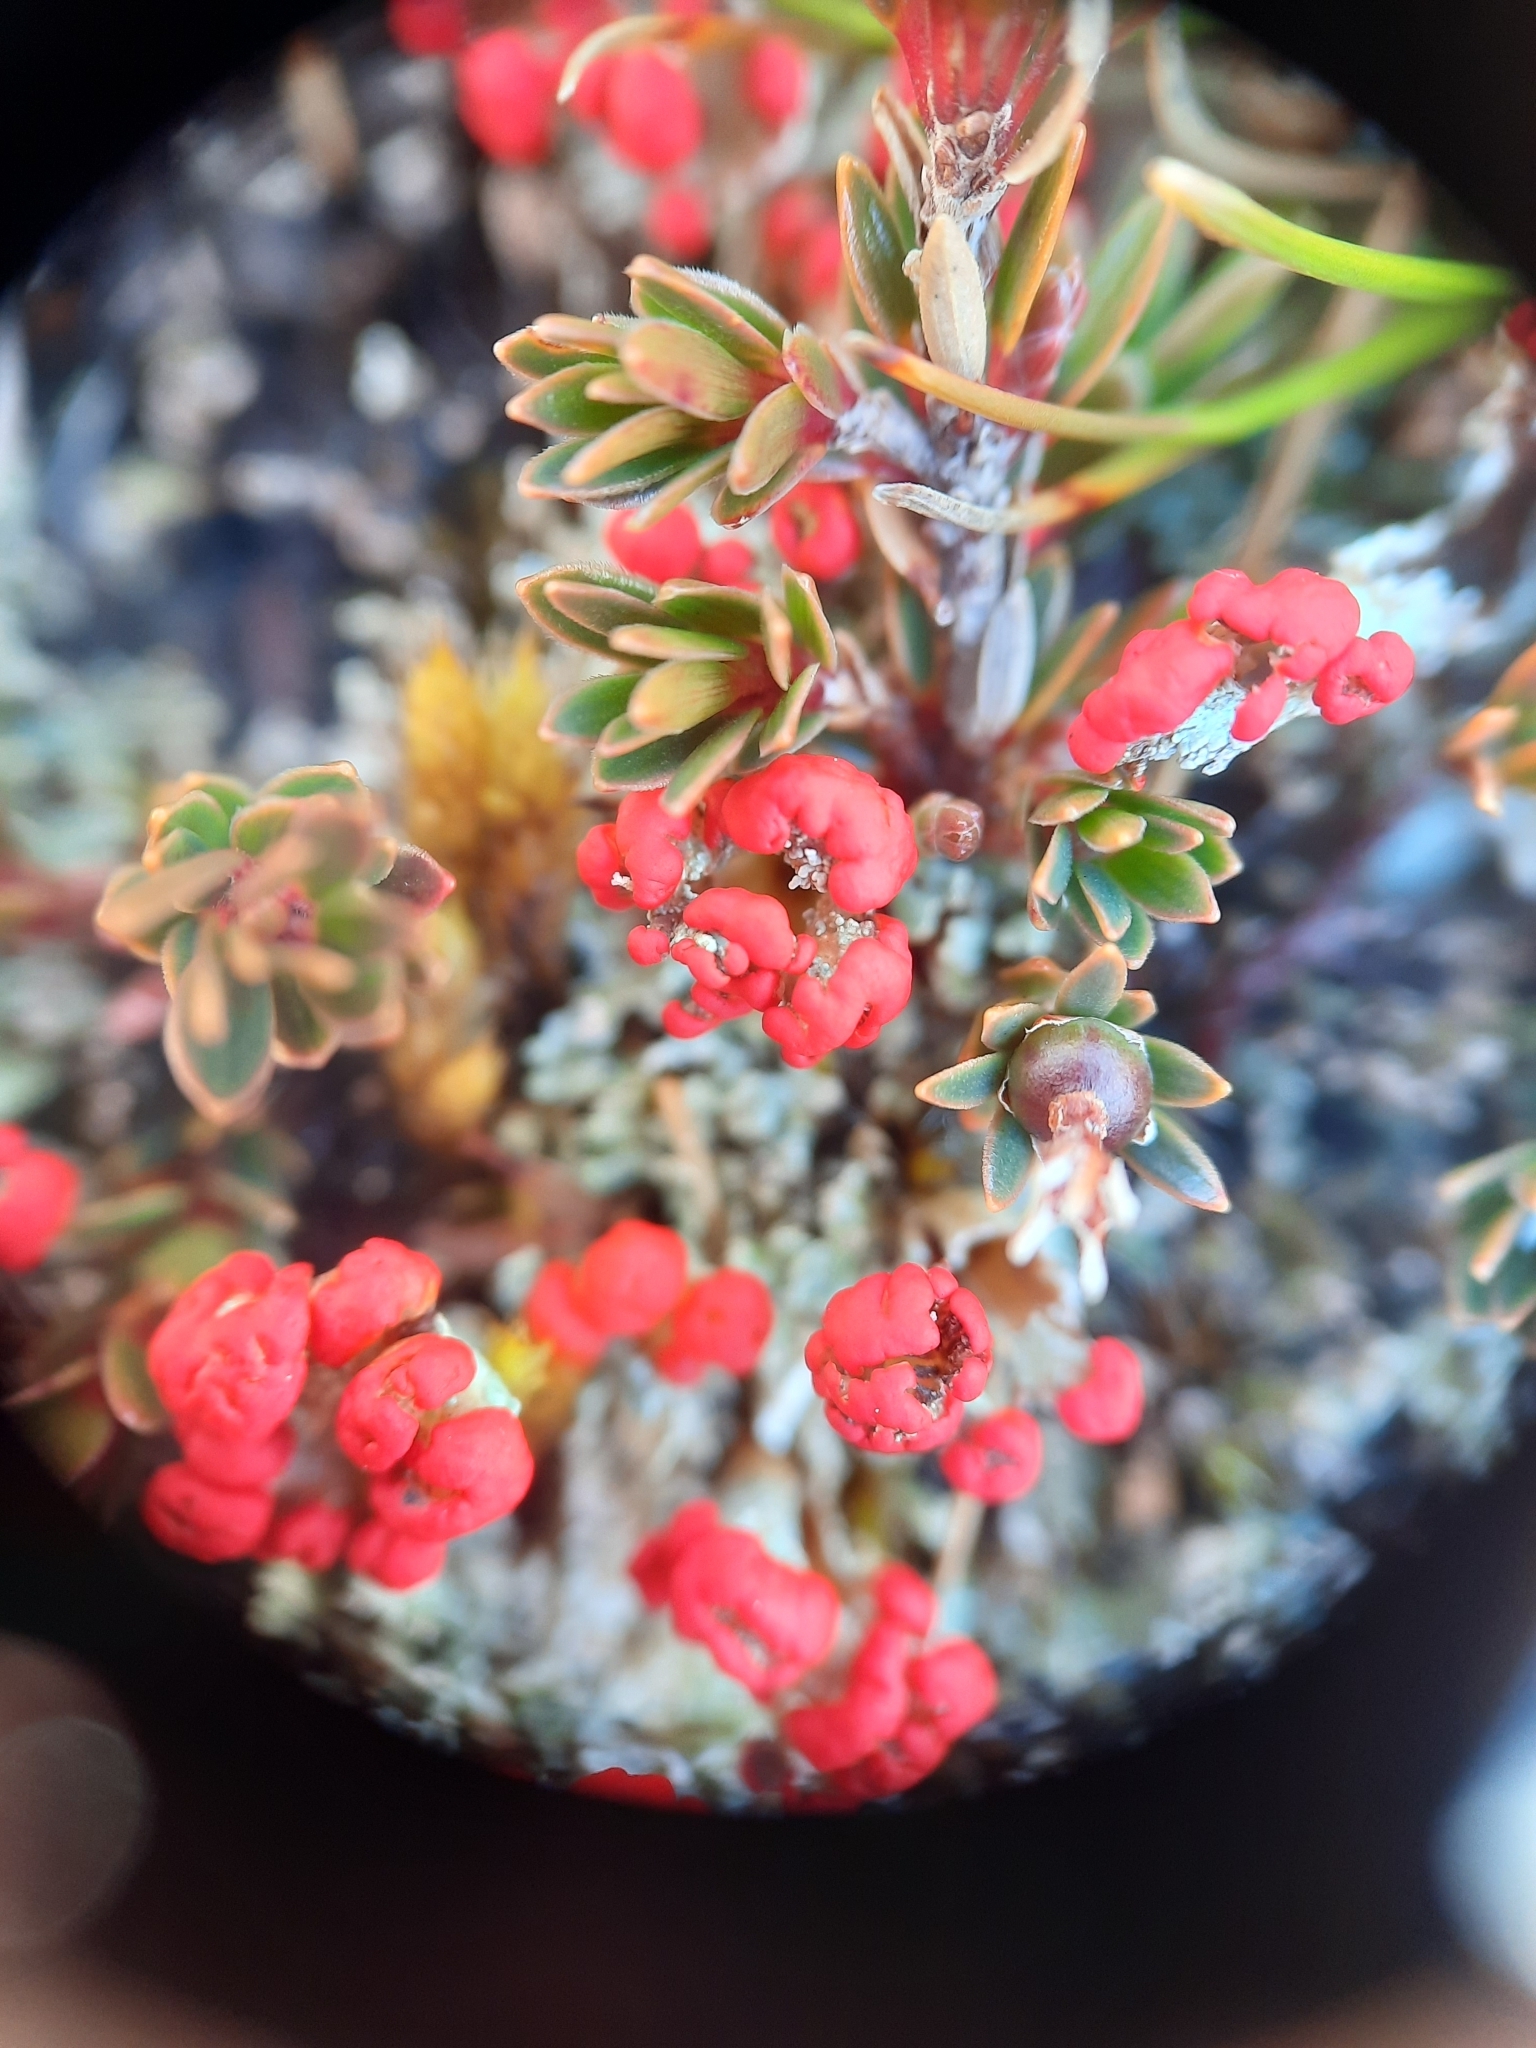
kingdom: Fungi
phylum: Ascomycota
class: Lecanoromycetes
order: Lecanorales
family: Cladoniaceae
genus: Cladonia
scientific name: Cladonia floerkeana
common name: Gritty british soldiers lichen
